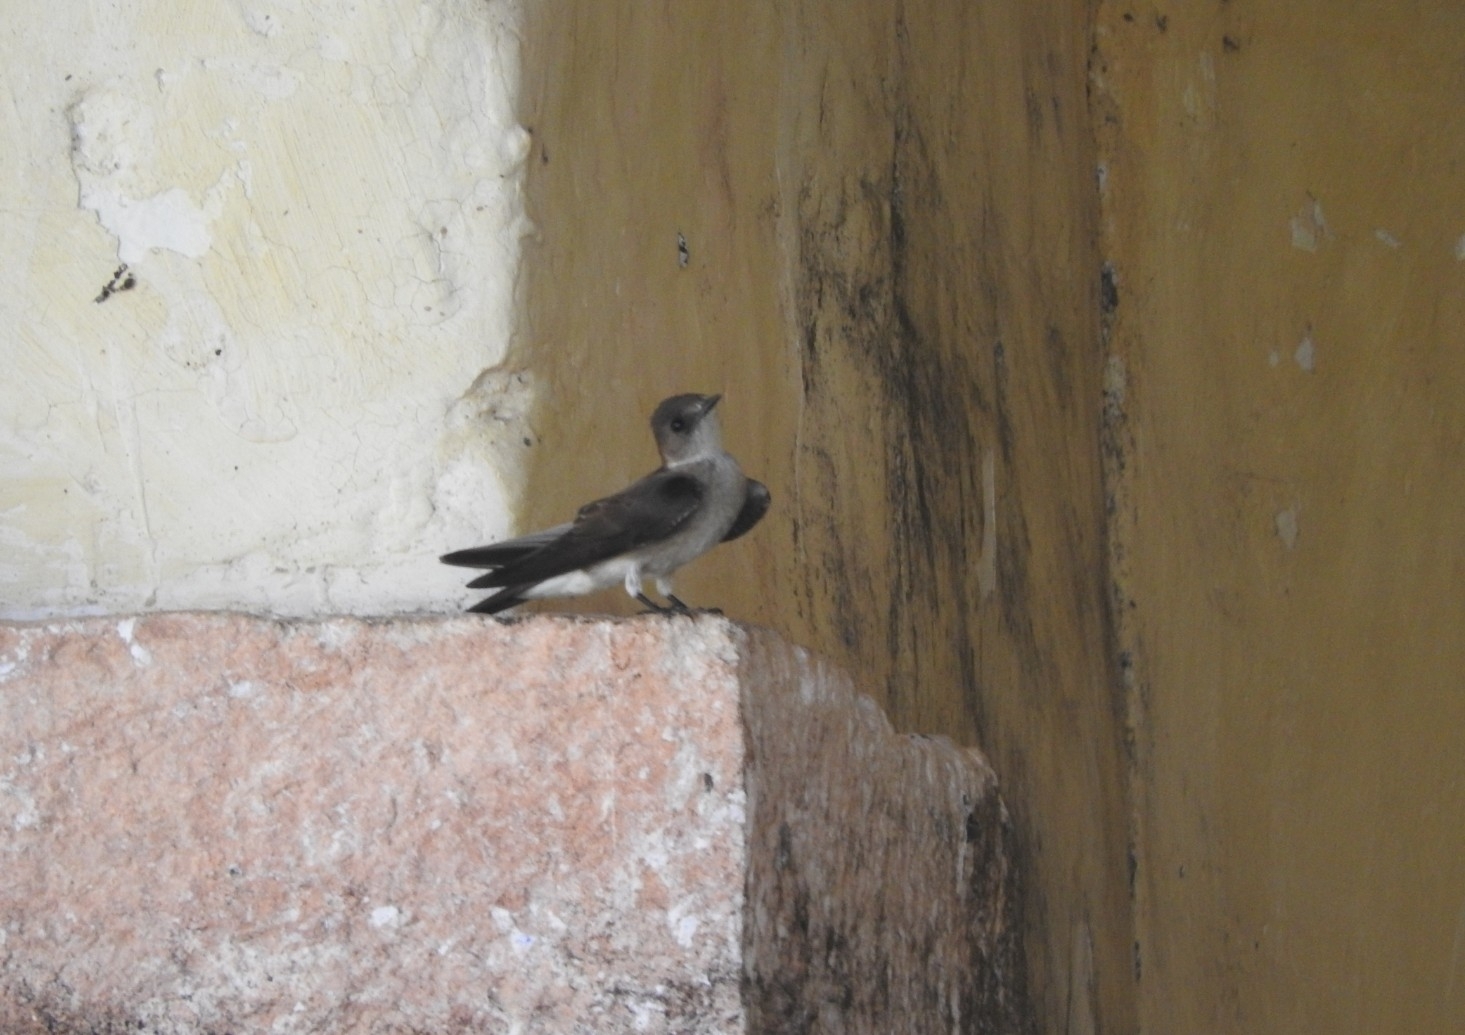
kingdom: Animalia
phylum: Chordata
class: Aves
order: Passeriformes
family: Hirundinidae
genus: Stelgidopteryx
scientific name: Stelgidopteryx serripennis
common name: Northern rough-winged swallow
